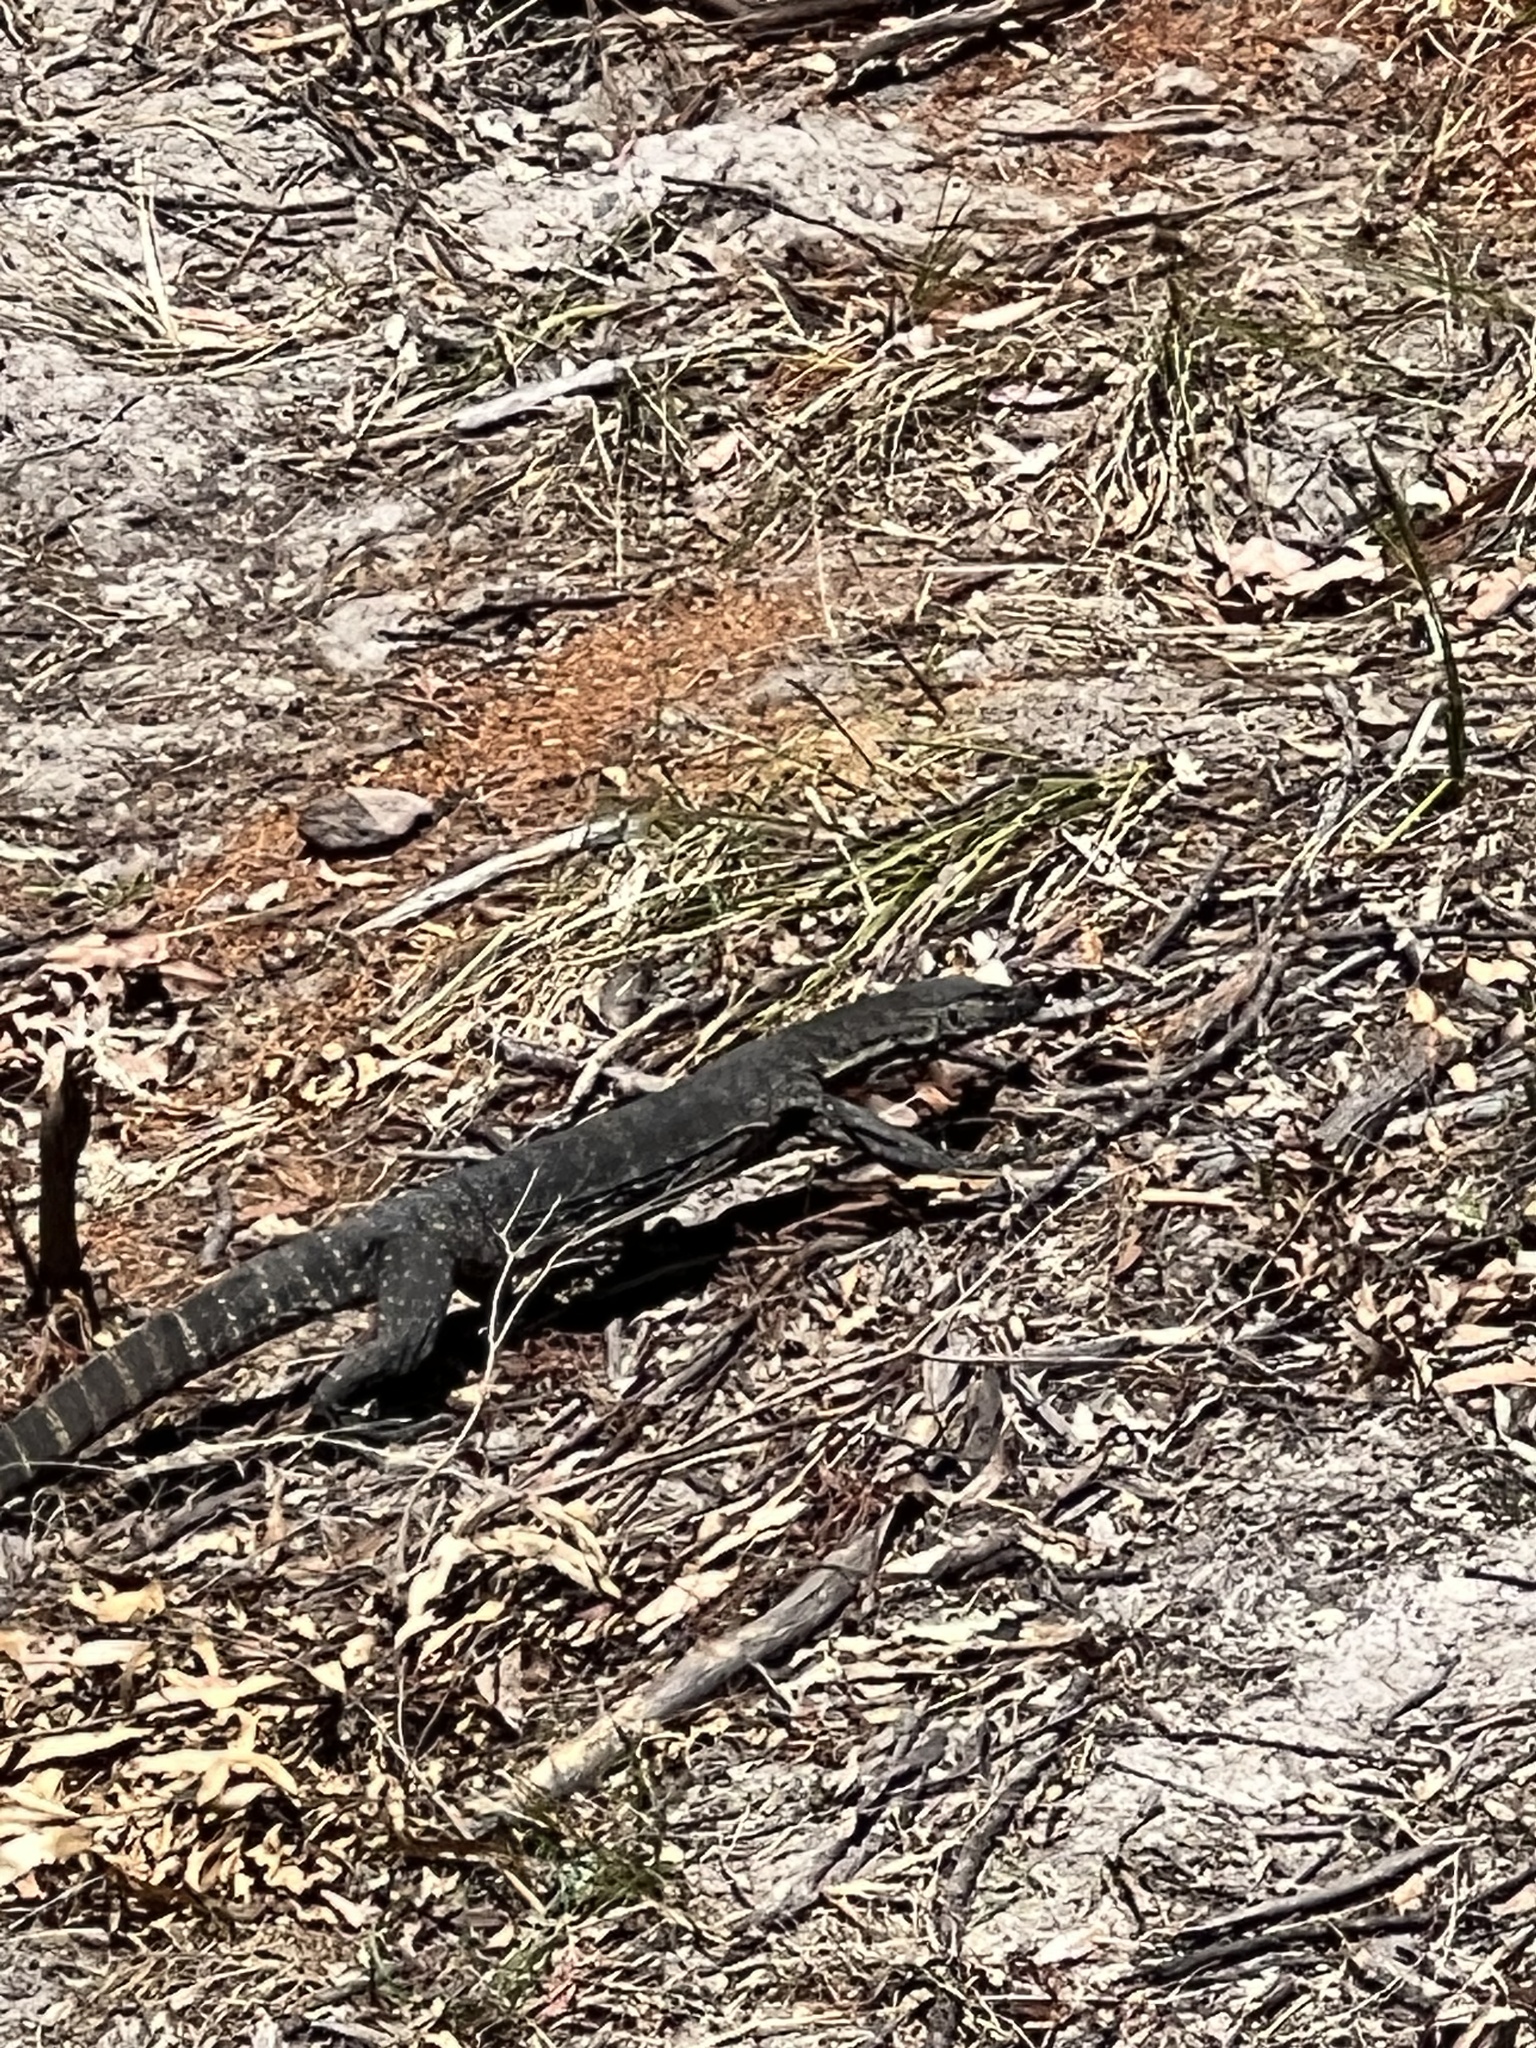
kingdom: Animalia
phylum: Chordata
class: Squamata
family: Varanidae
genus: Varanus
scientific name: Varanus rosenbergi
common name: Heath monitor
